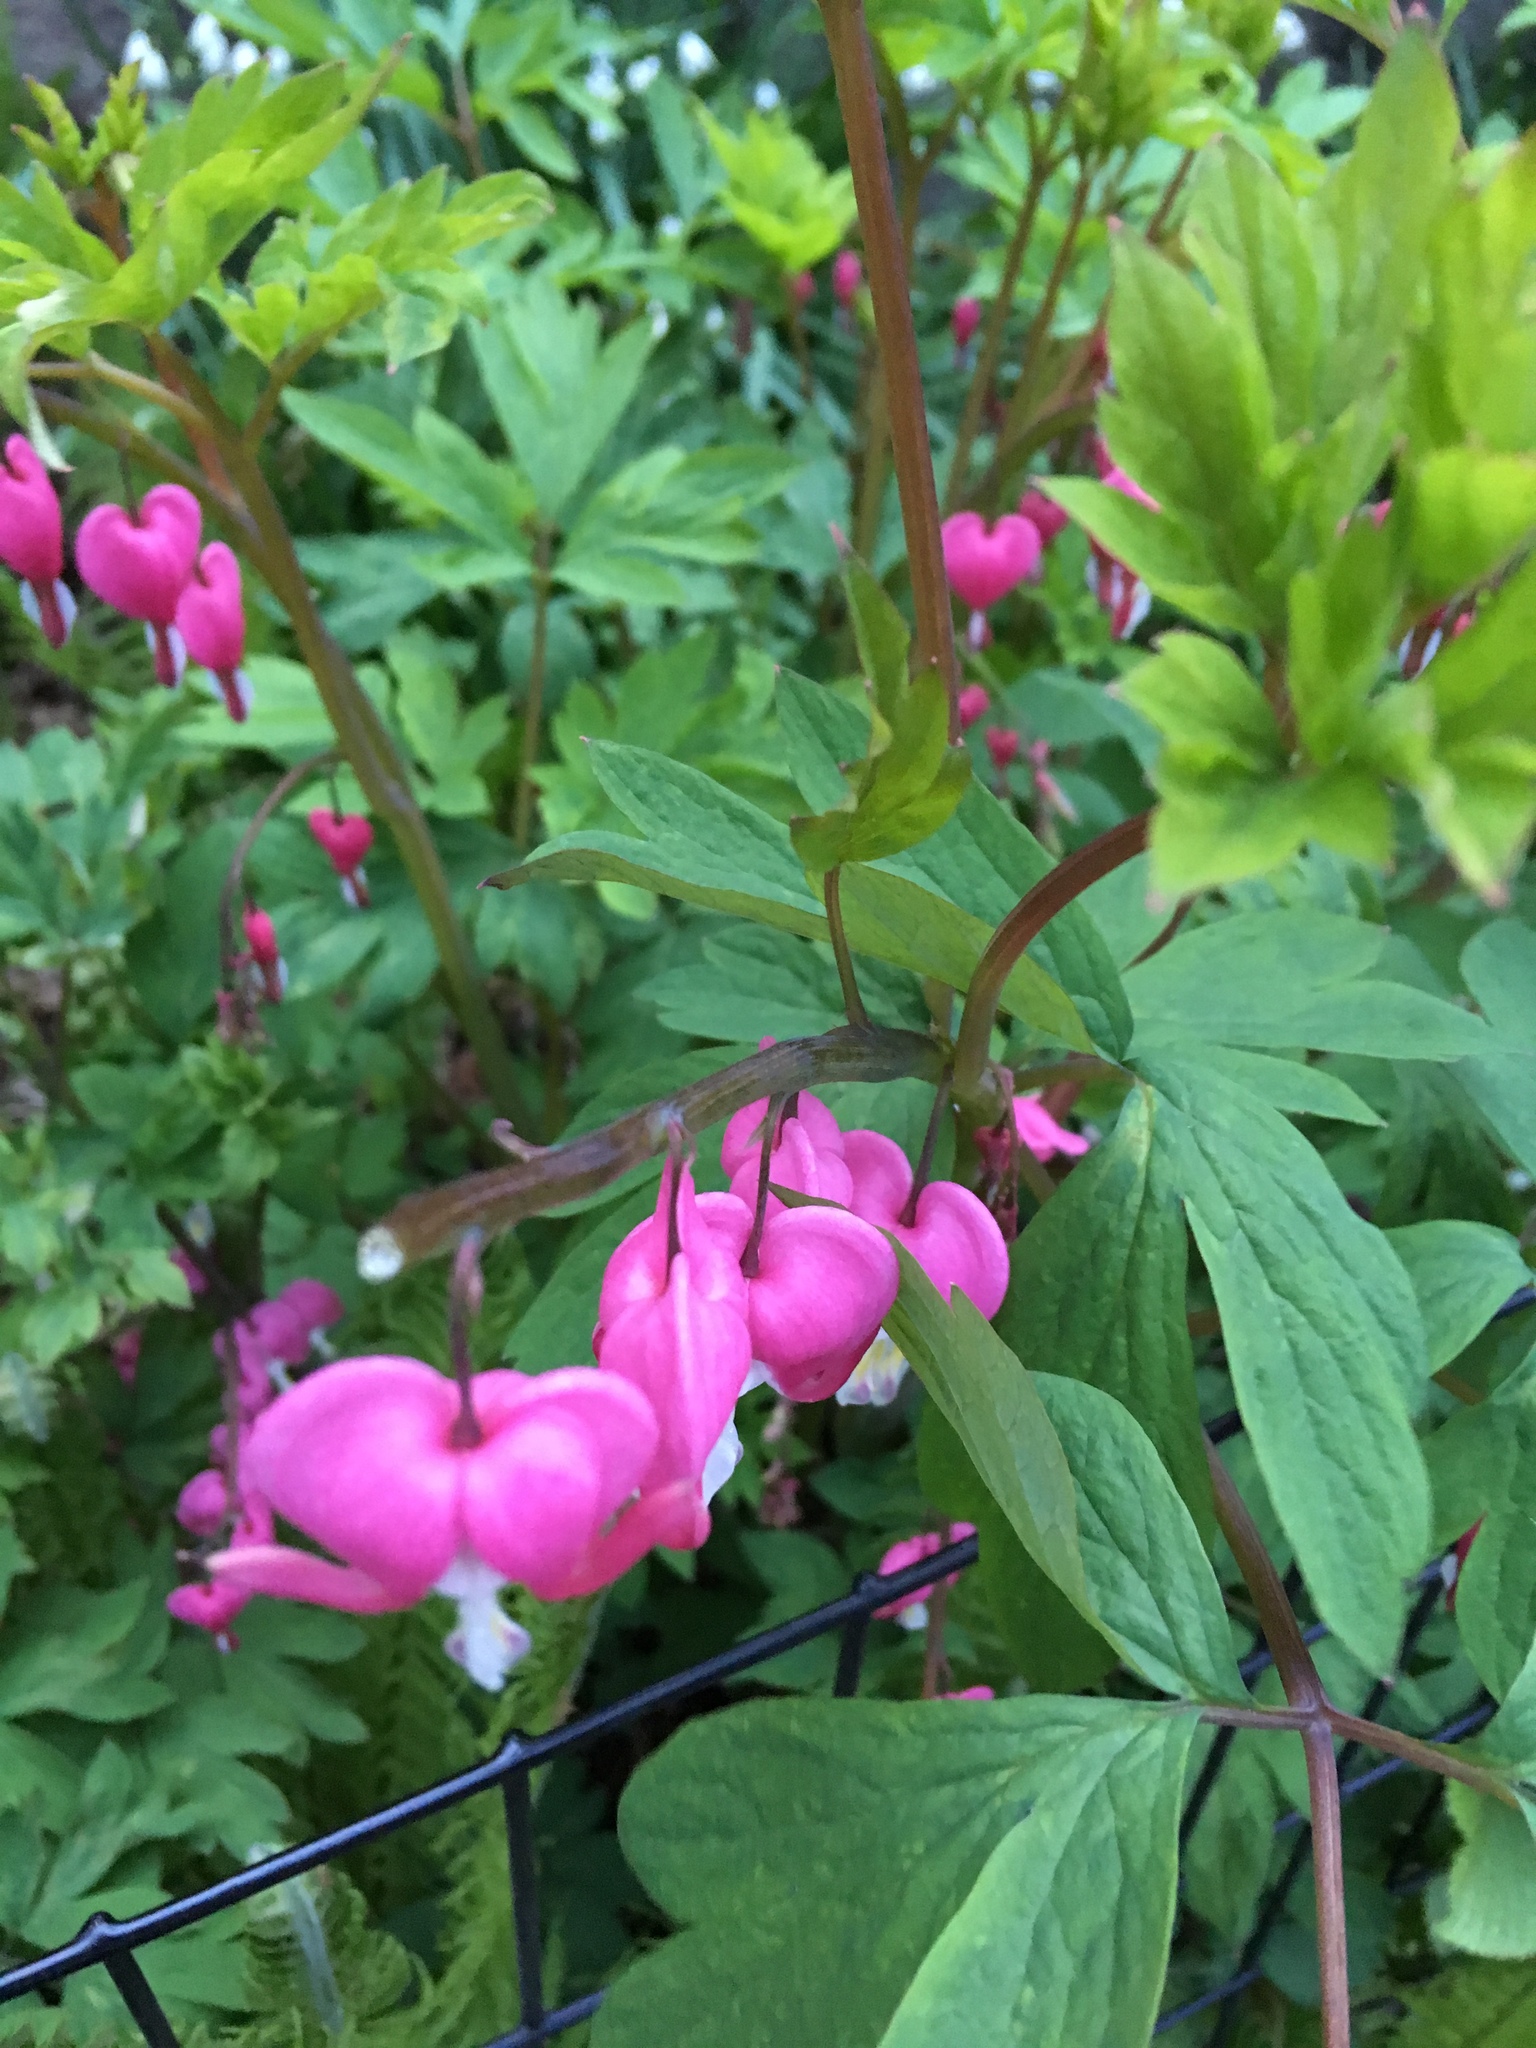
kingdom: Plantae
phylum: Tracheophyta
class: Magnoliopsida
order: Ranunculales
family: Papaveraceae
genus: Lamprocapnos
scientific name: Lamprocapnos spectabilis
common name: Asian bleeding-heart
